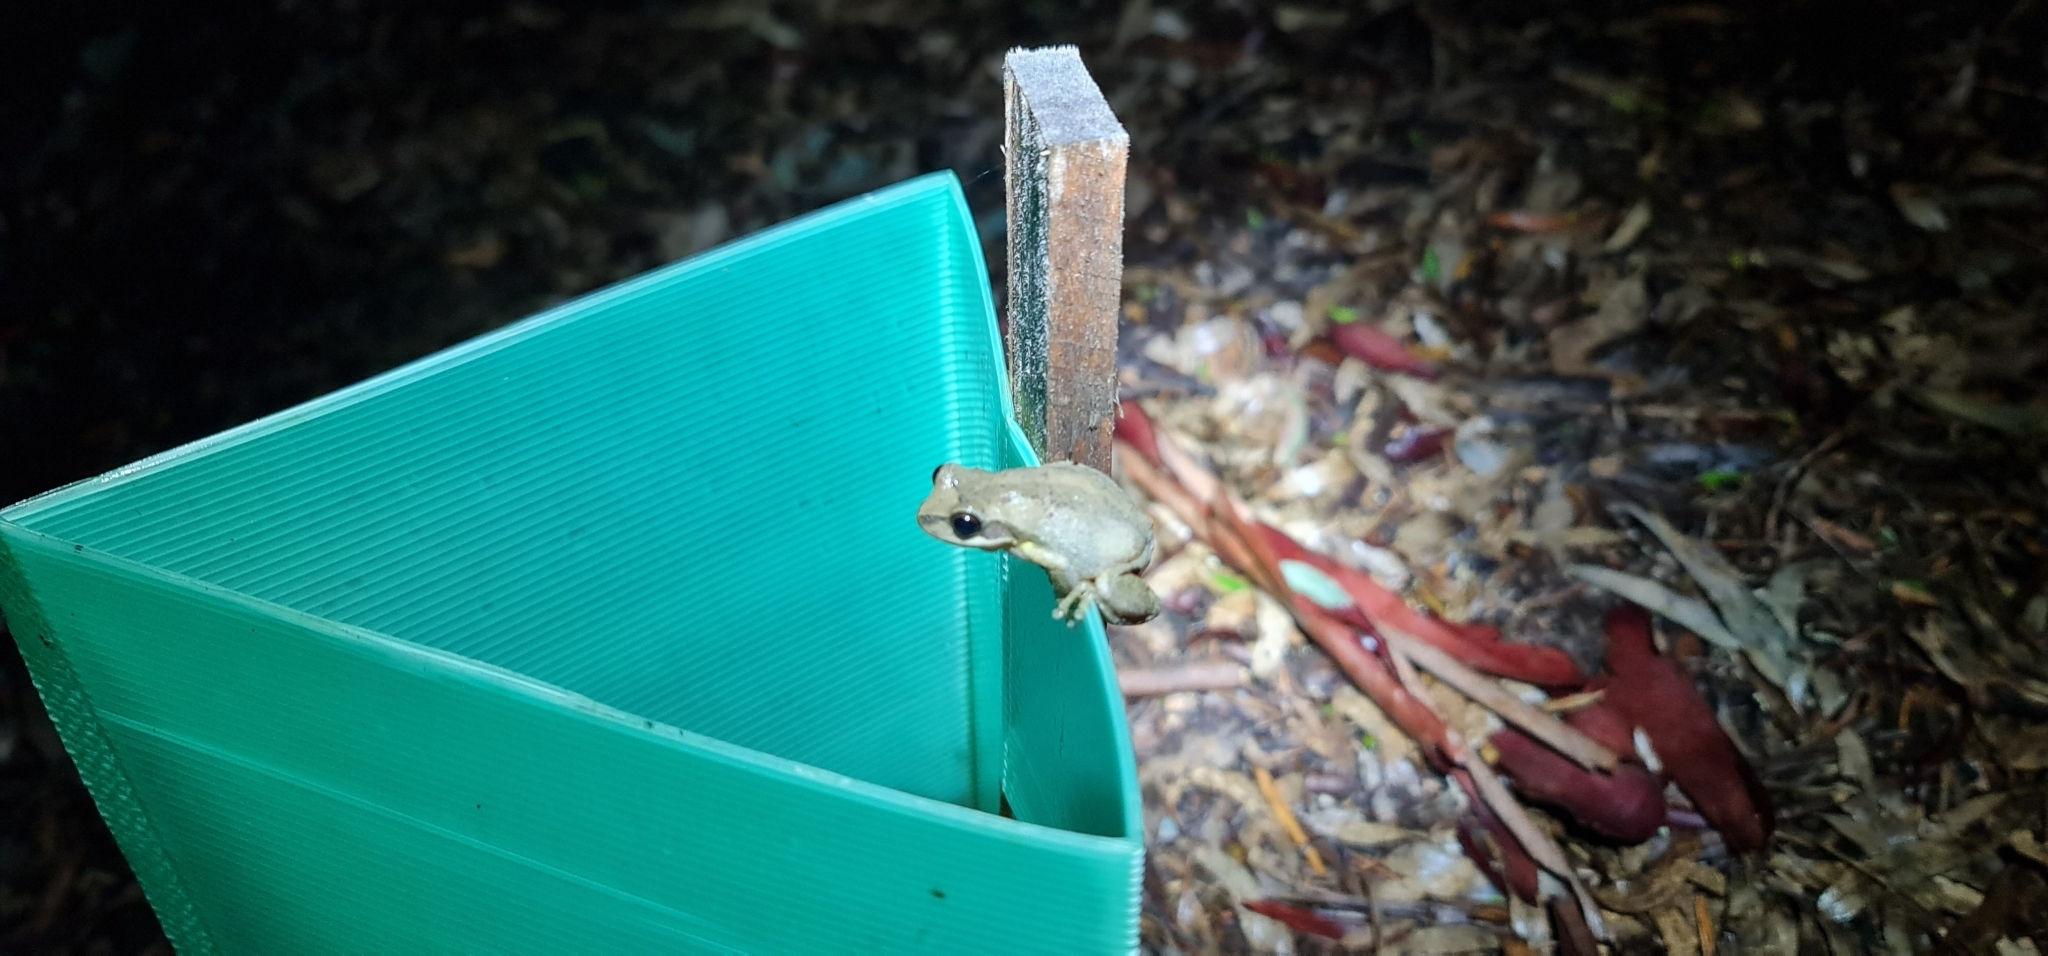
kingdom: Animalia
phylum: Chordata
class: Amphibia
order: Anura
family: Pelodryadidae
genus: Litoria
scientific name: Litoria
